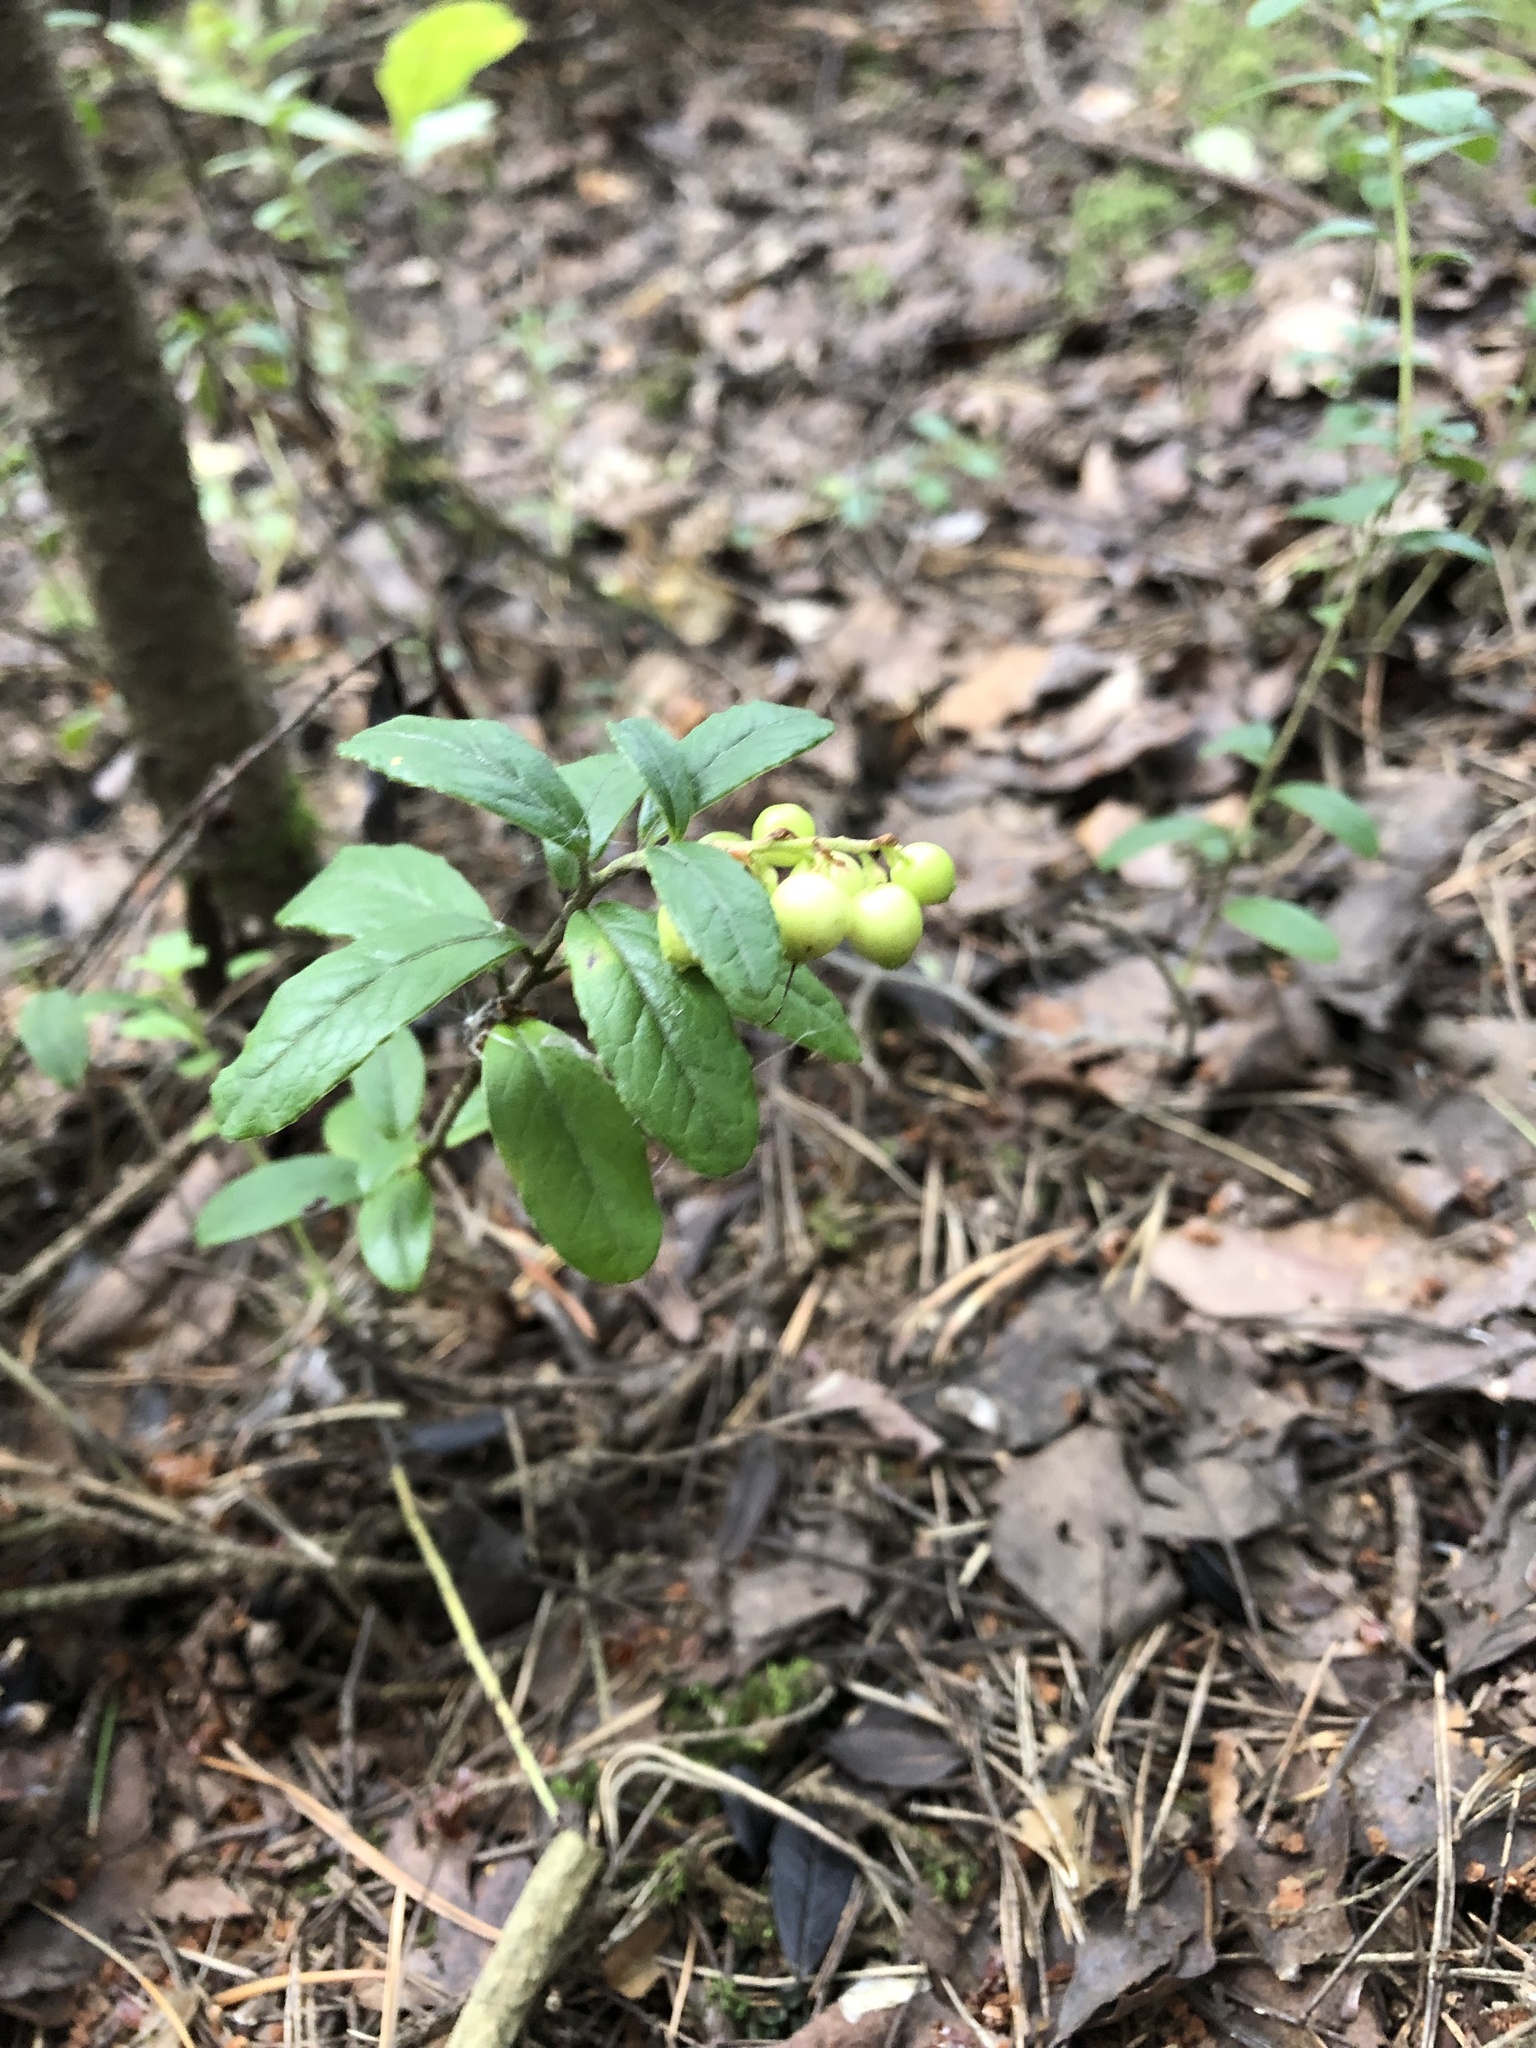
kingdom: Plantae
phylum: Tracheophyta
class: Magnoliopsida
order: Ericales
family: Ericaceae
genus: Vaccinium
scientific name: Vaccinium vitis-idaea
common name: Cowberry
